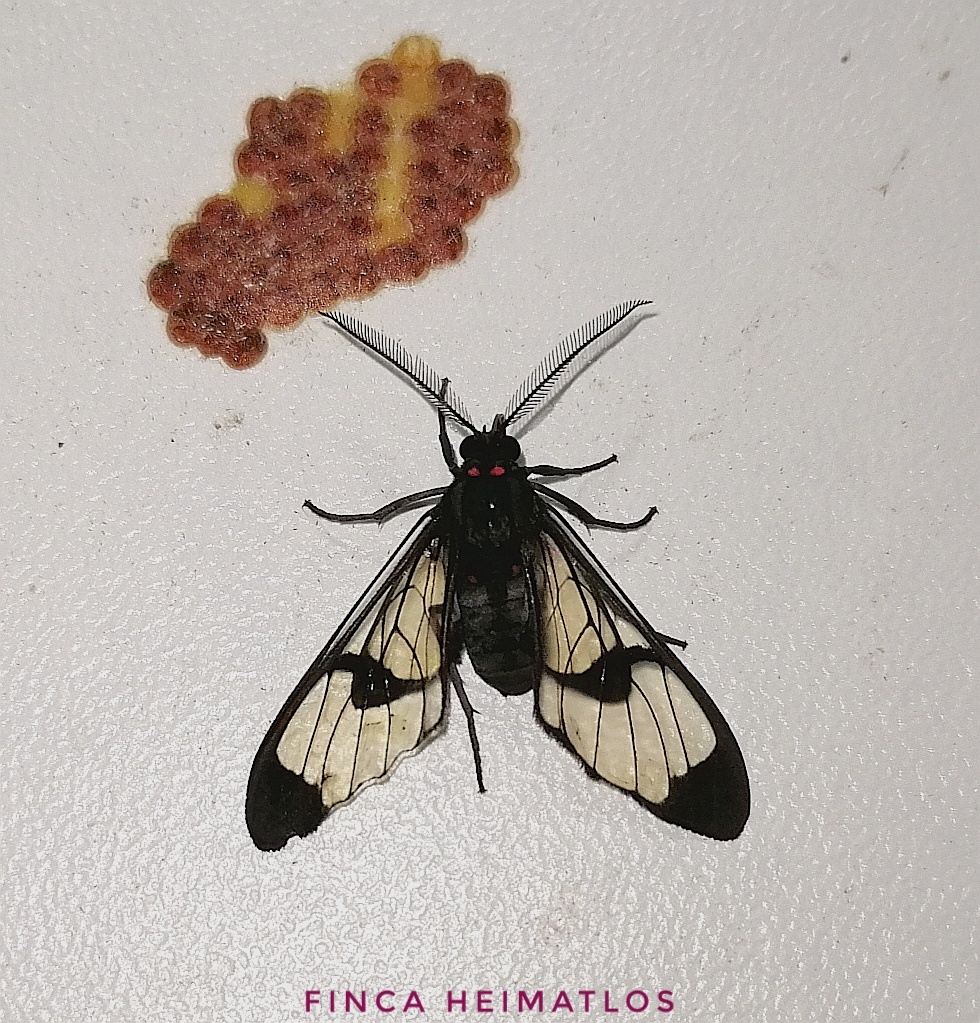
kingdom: Animalia
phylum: Arthropoda
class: Insecta
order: Lepidoptera
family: Erebidae
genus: Saurita
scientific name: Saurita
